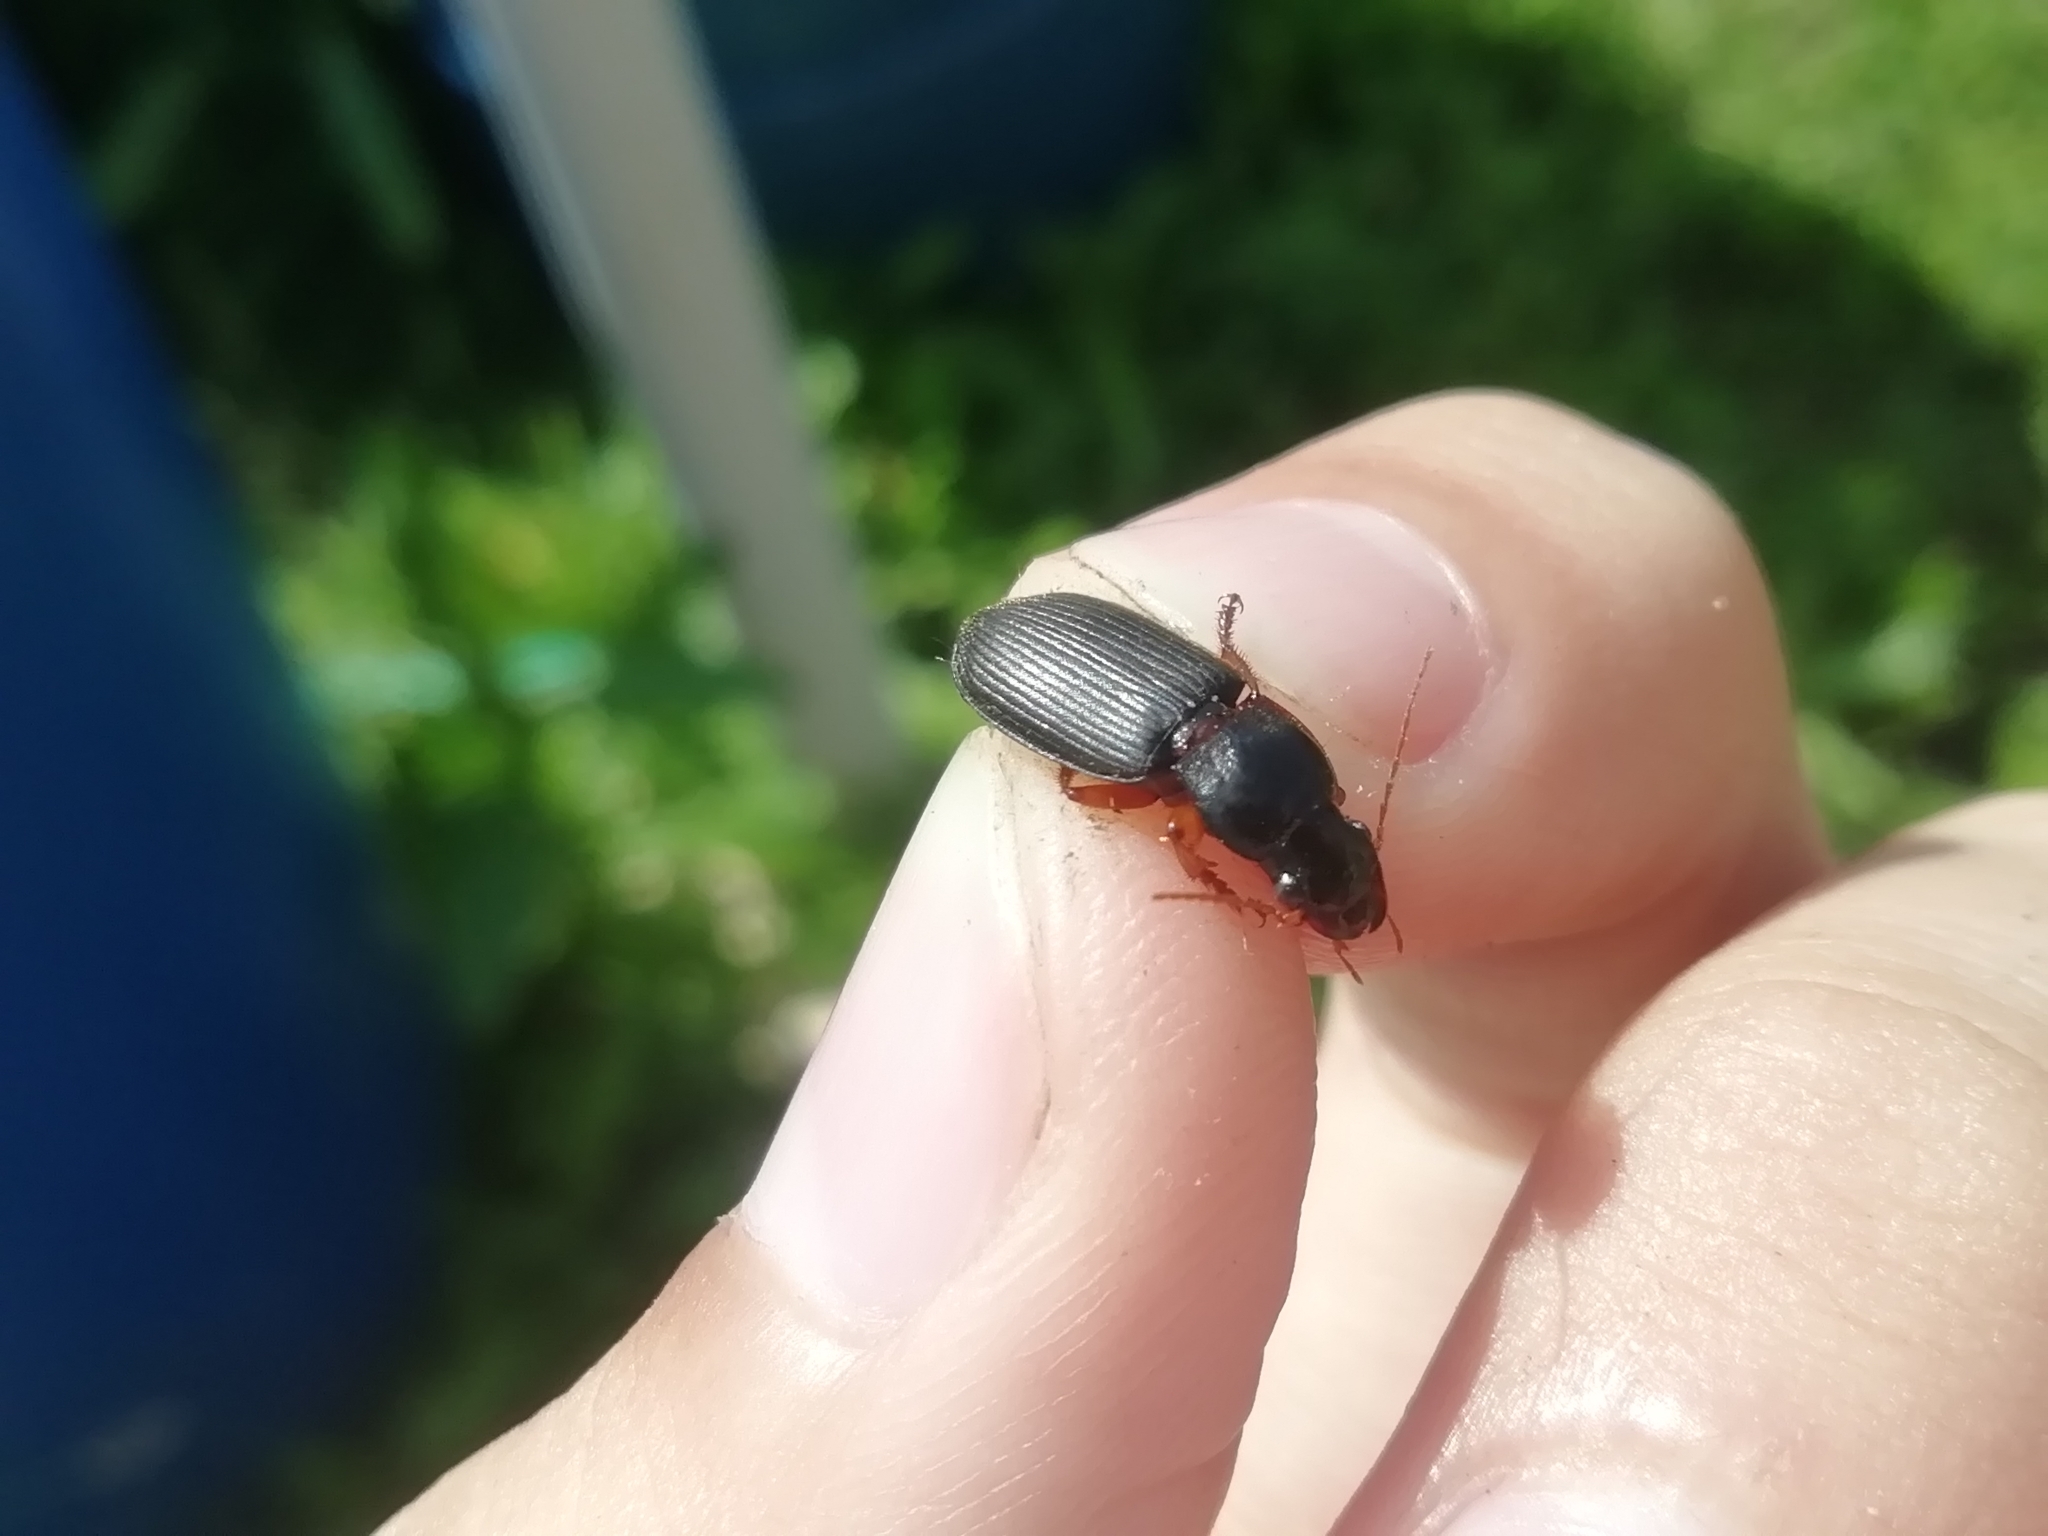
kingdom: Animalia
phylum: Arthropoda
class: Insecta
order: Coleoptera
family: Carabidae
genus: Harpalus
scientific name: Harpalus rufipes
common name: Strawberry harp ground beetle
